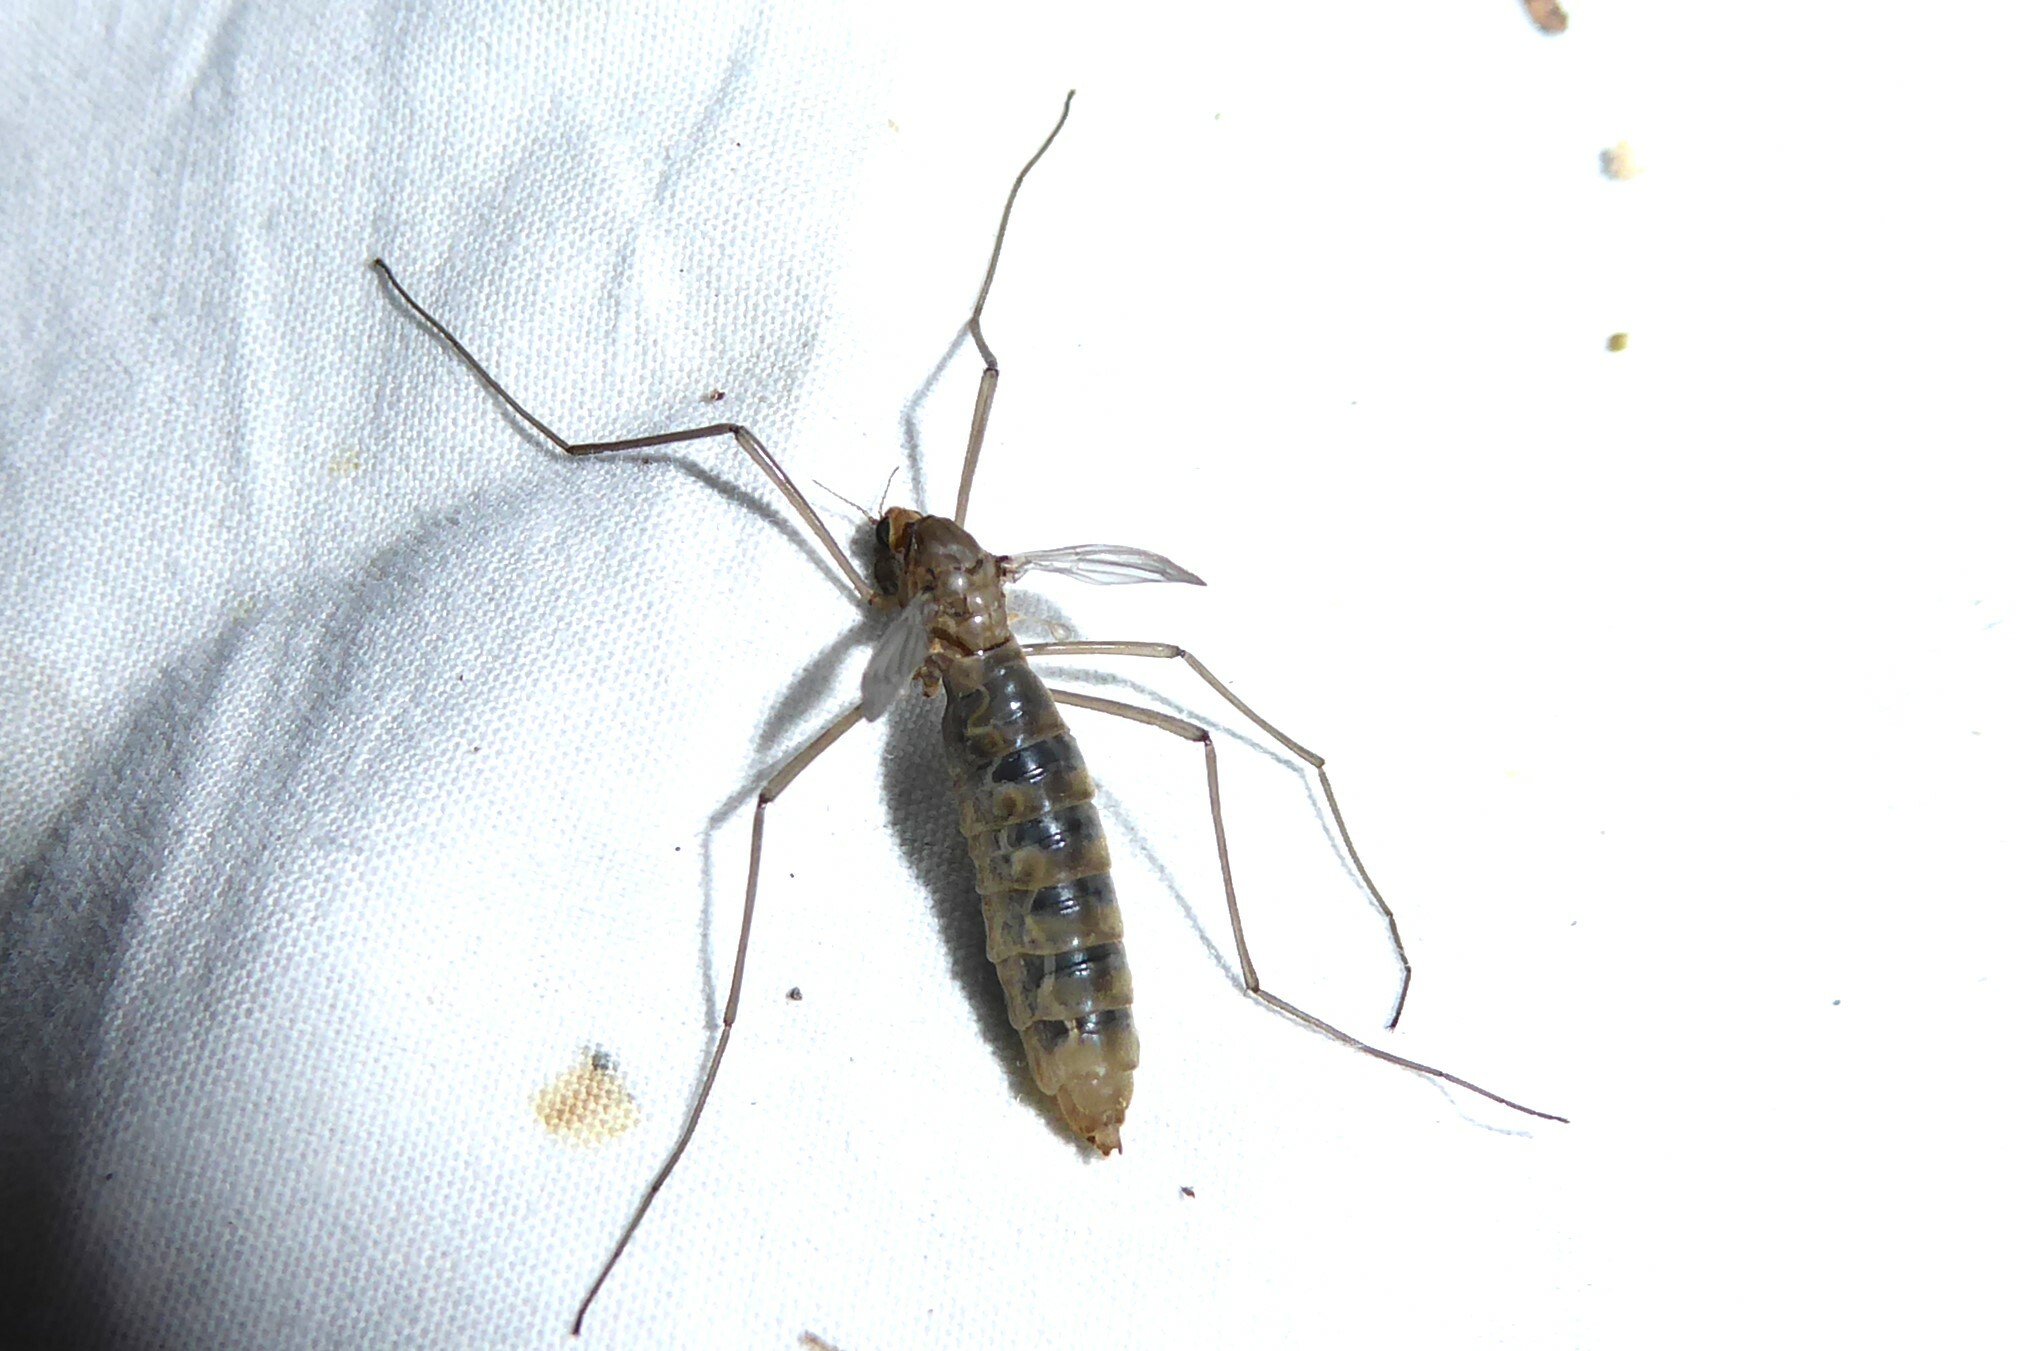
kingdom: Animalia
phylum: Arthropoda
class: Insecta
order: Diptera
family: Tipulidae
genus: Leptotarsus
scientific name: Leptotarsus zeylandiae
